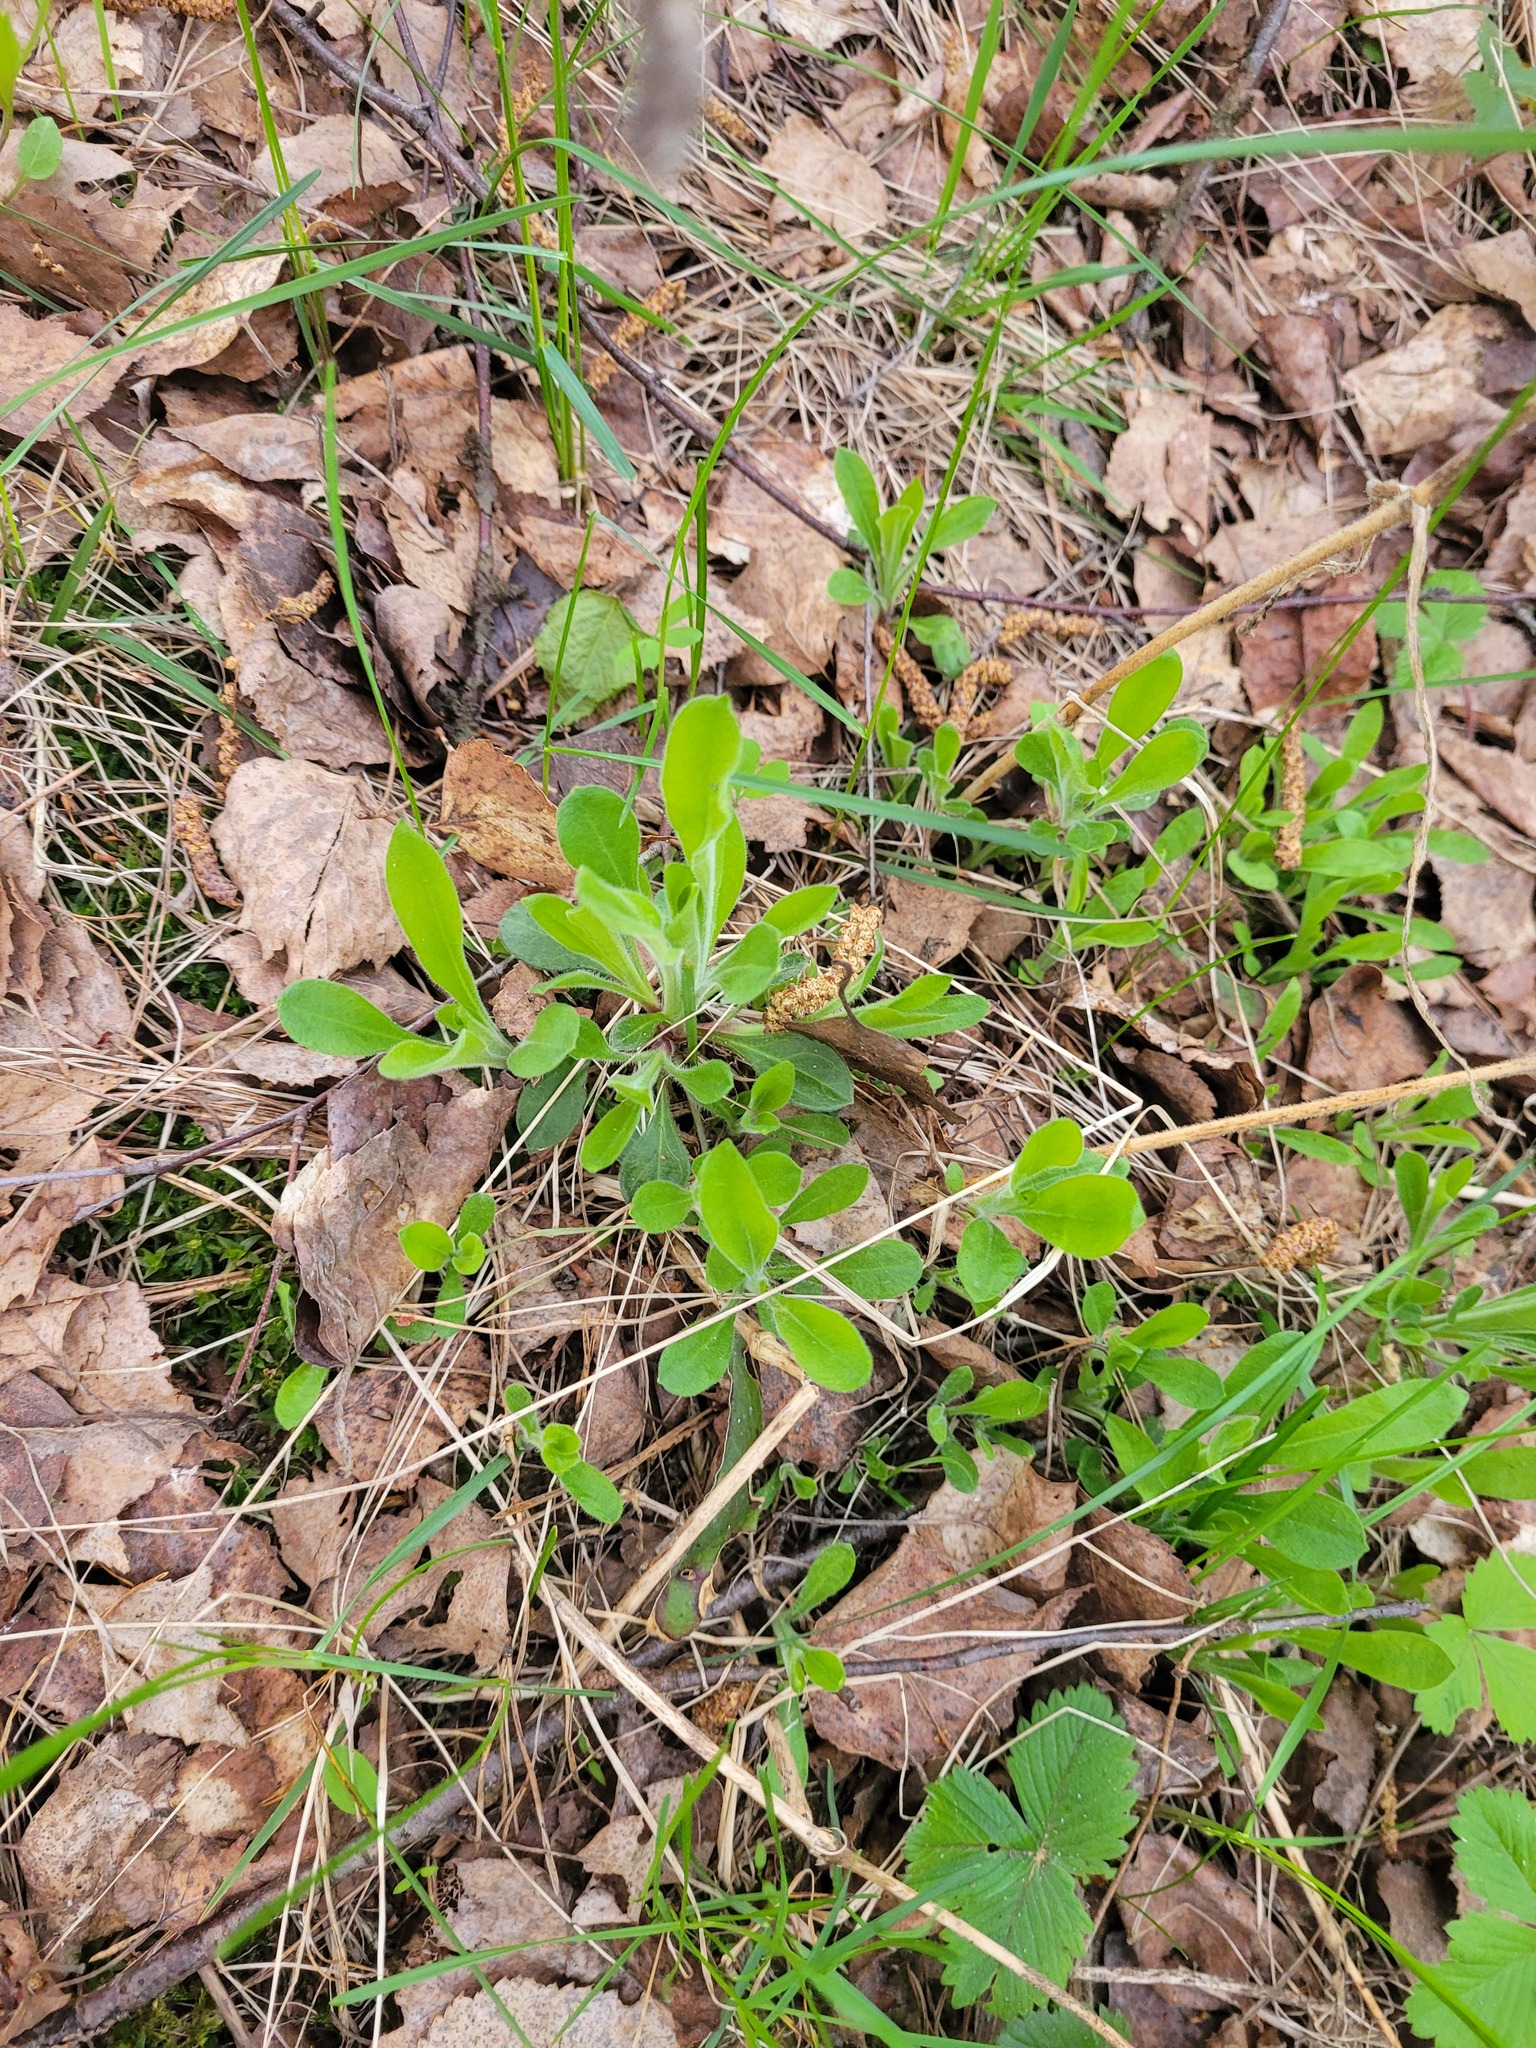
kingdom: Plantae
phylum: Tracheophyta
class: Magnoliopsida
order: Caryophyllales
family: Caryophyllaceae
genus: Silene
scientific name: Silene nutans
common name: Nottingham catchfly
